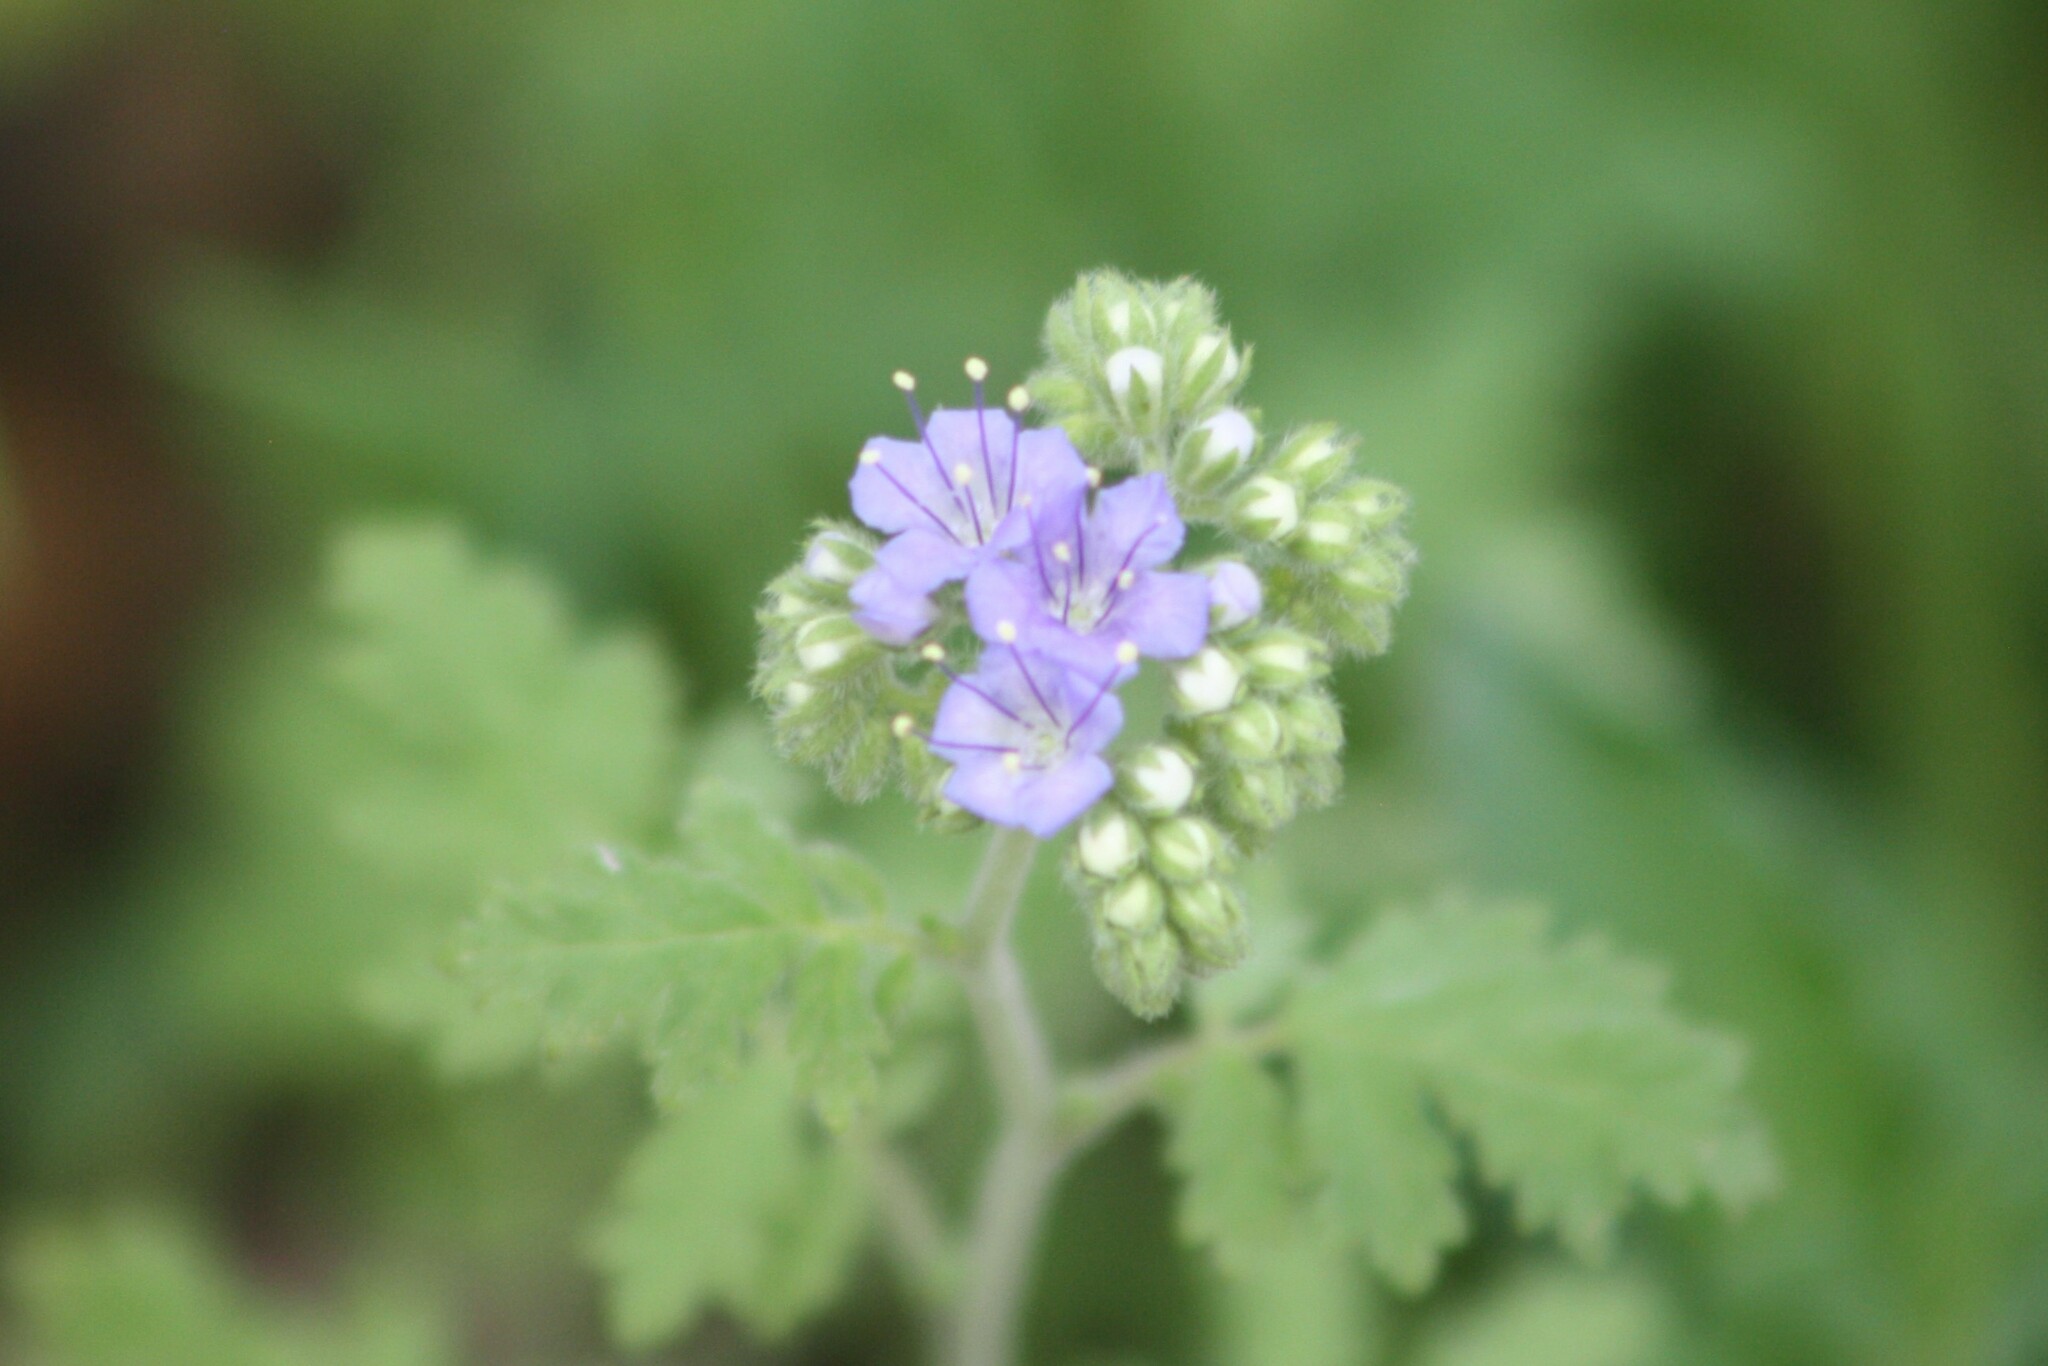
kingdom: Plantae
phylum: Tracheophyta
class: Magnoliopsida
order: Boraginales
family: Hydrophyllaceae
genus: Phacelia
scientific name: Phacelia congesta
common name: Blue curls
